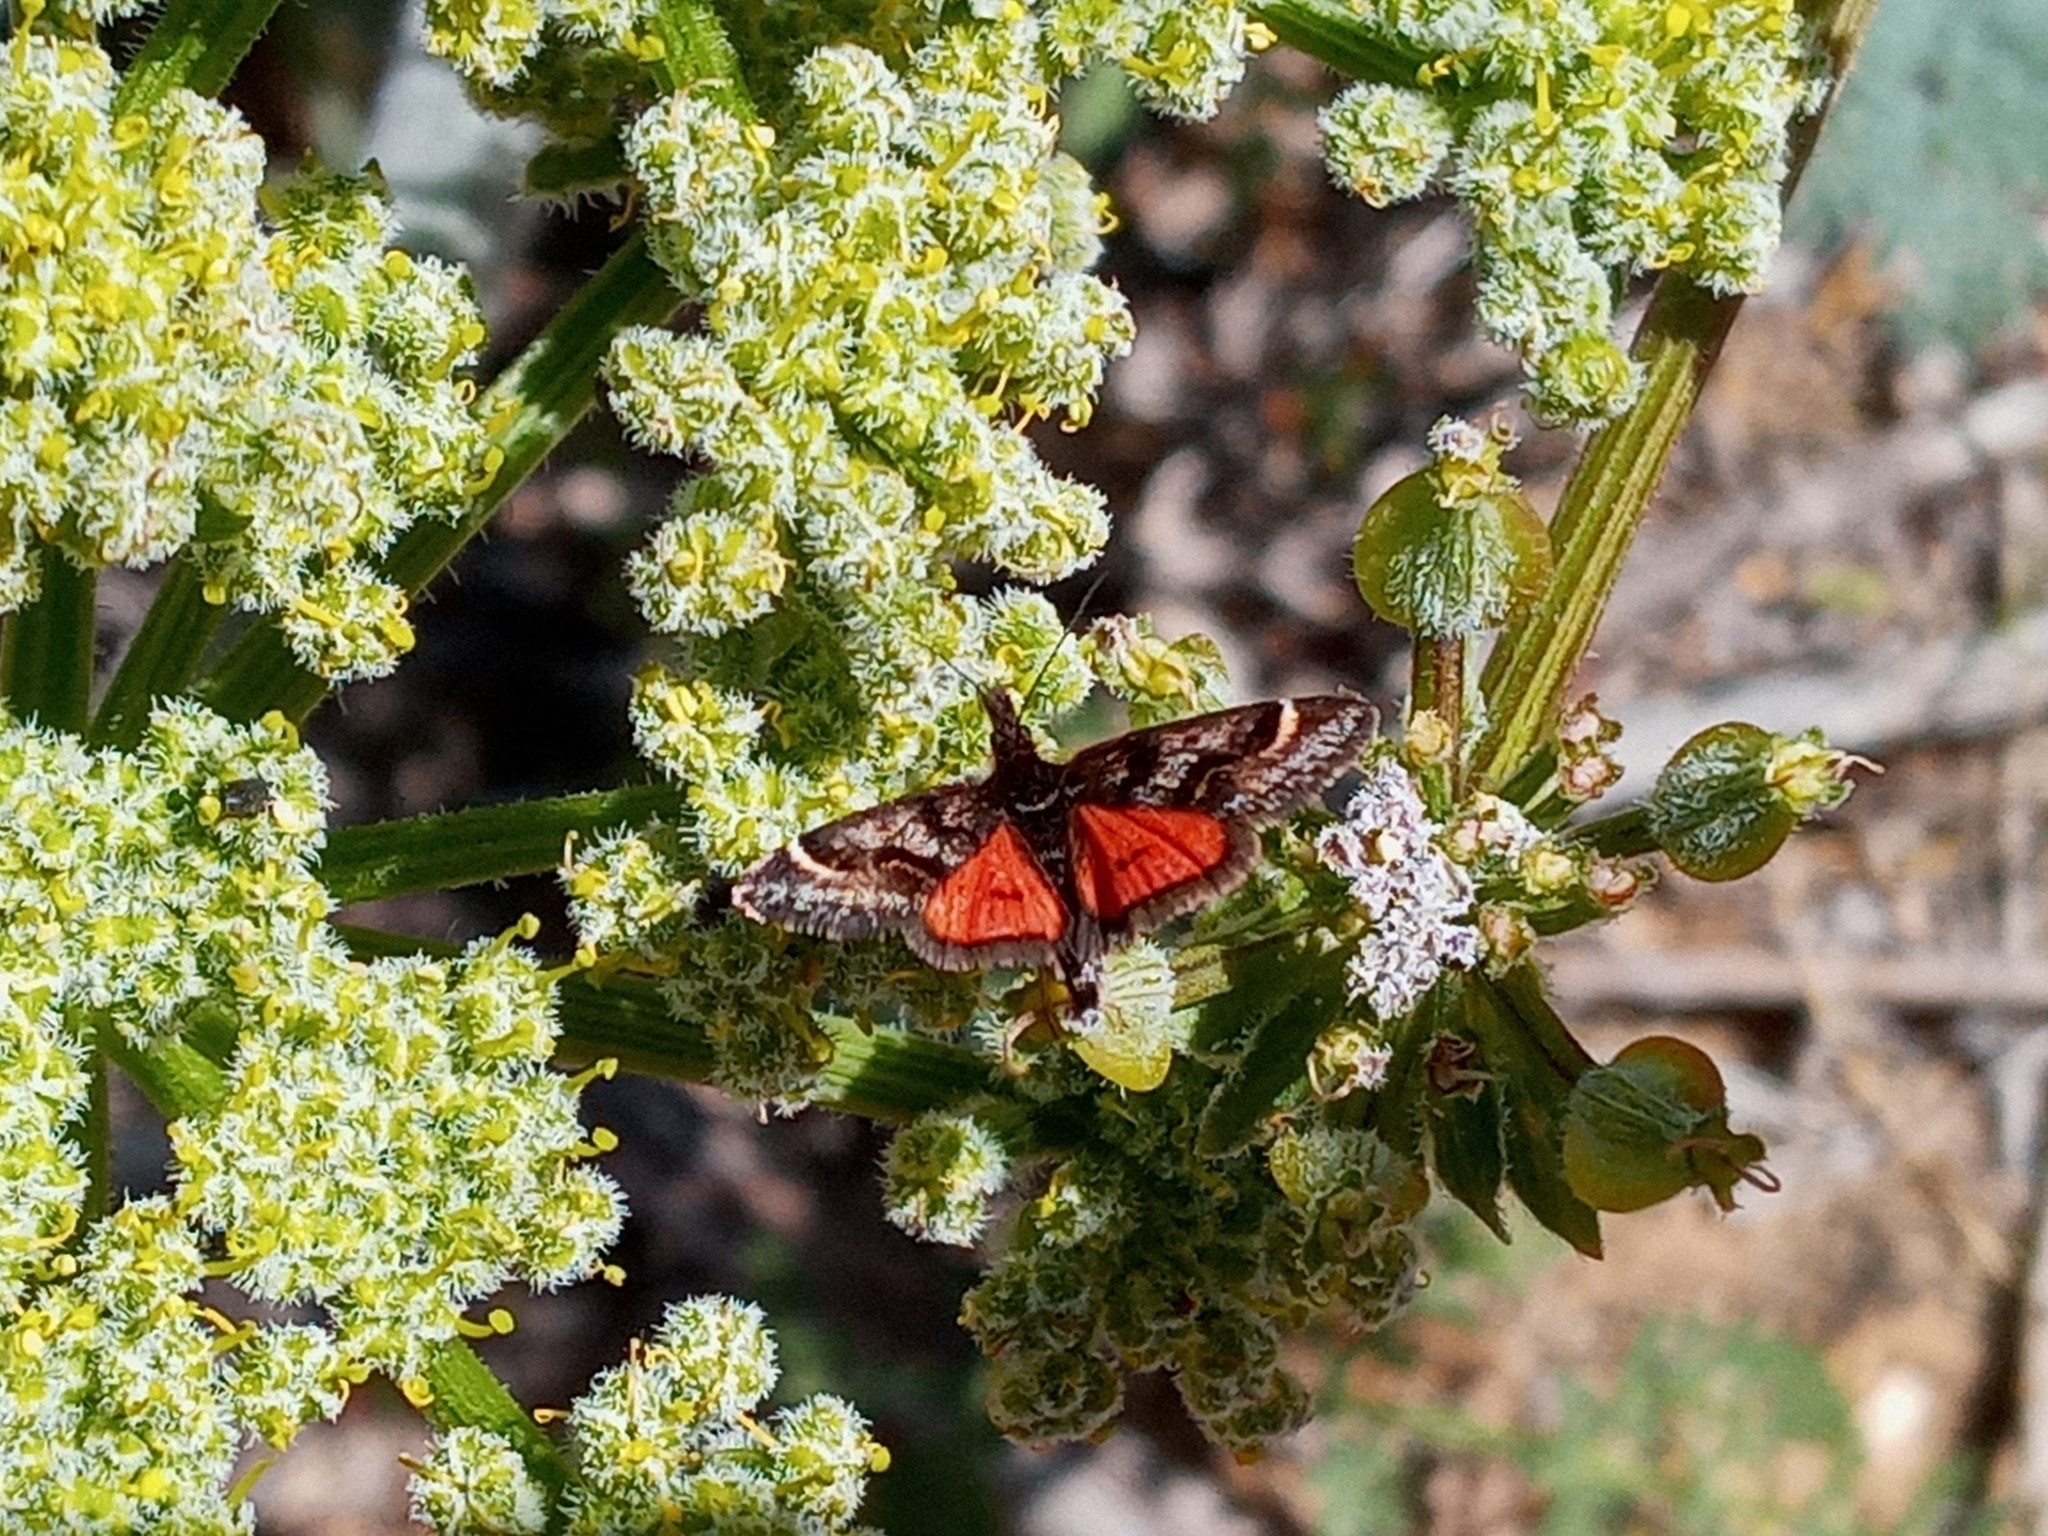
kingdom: Animalia
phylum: Arthropoda
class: Insecta
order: Lepidoptera
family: Crambidae
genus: Pyrausta
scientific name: Pyrausta dapalis
